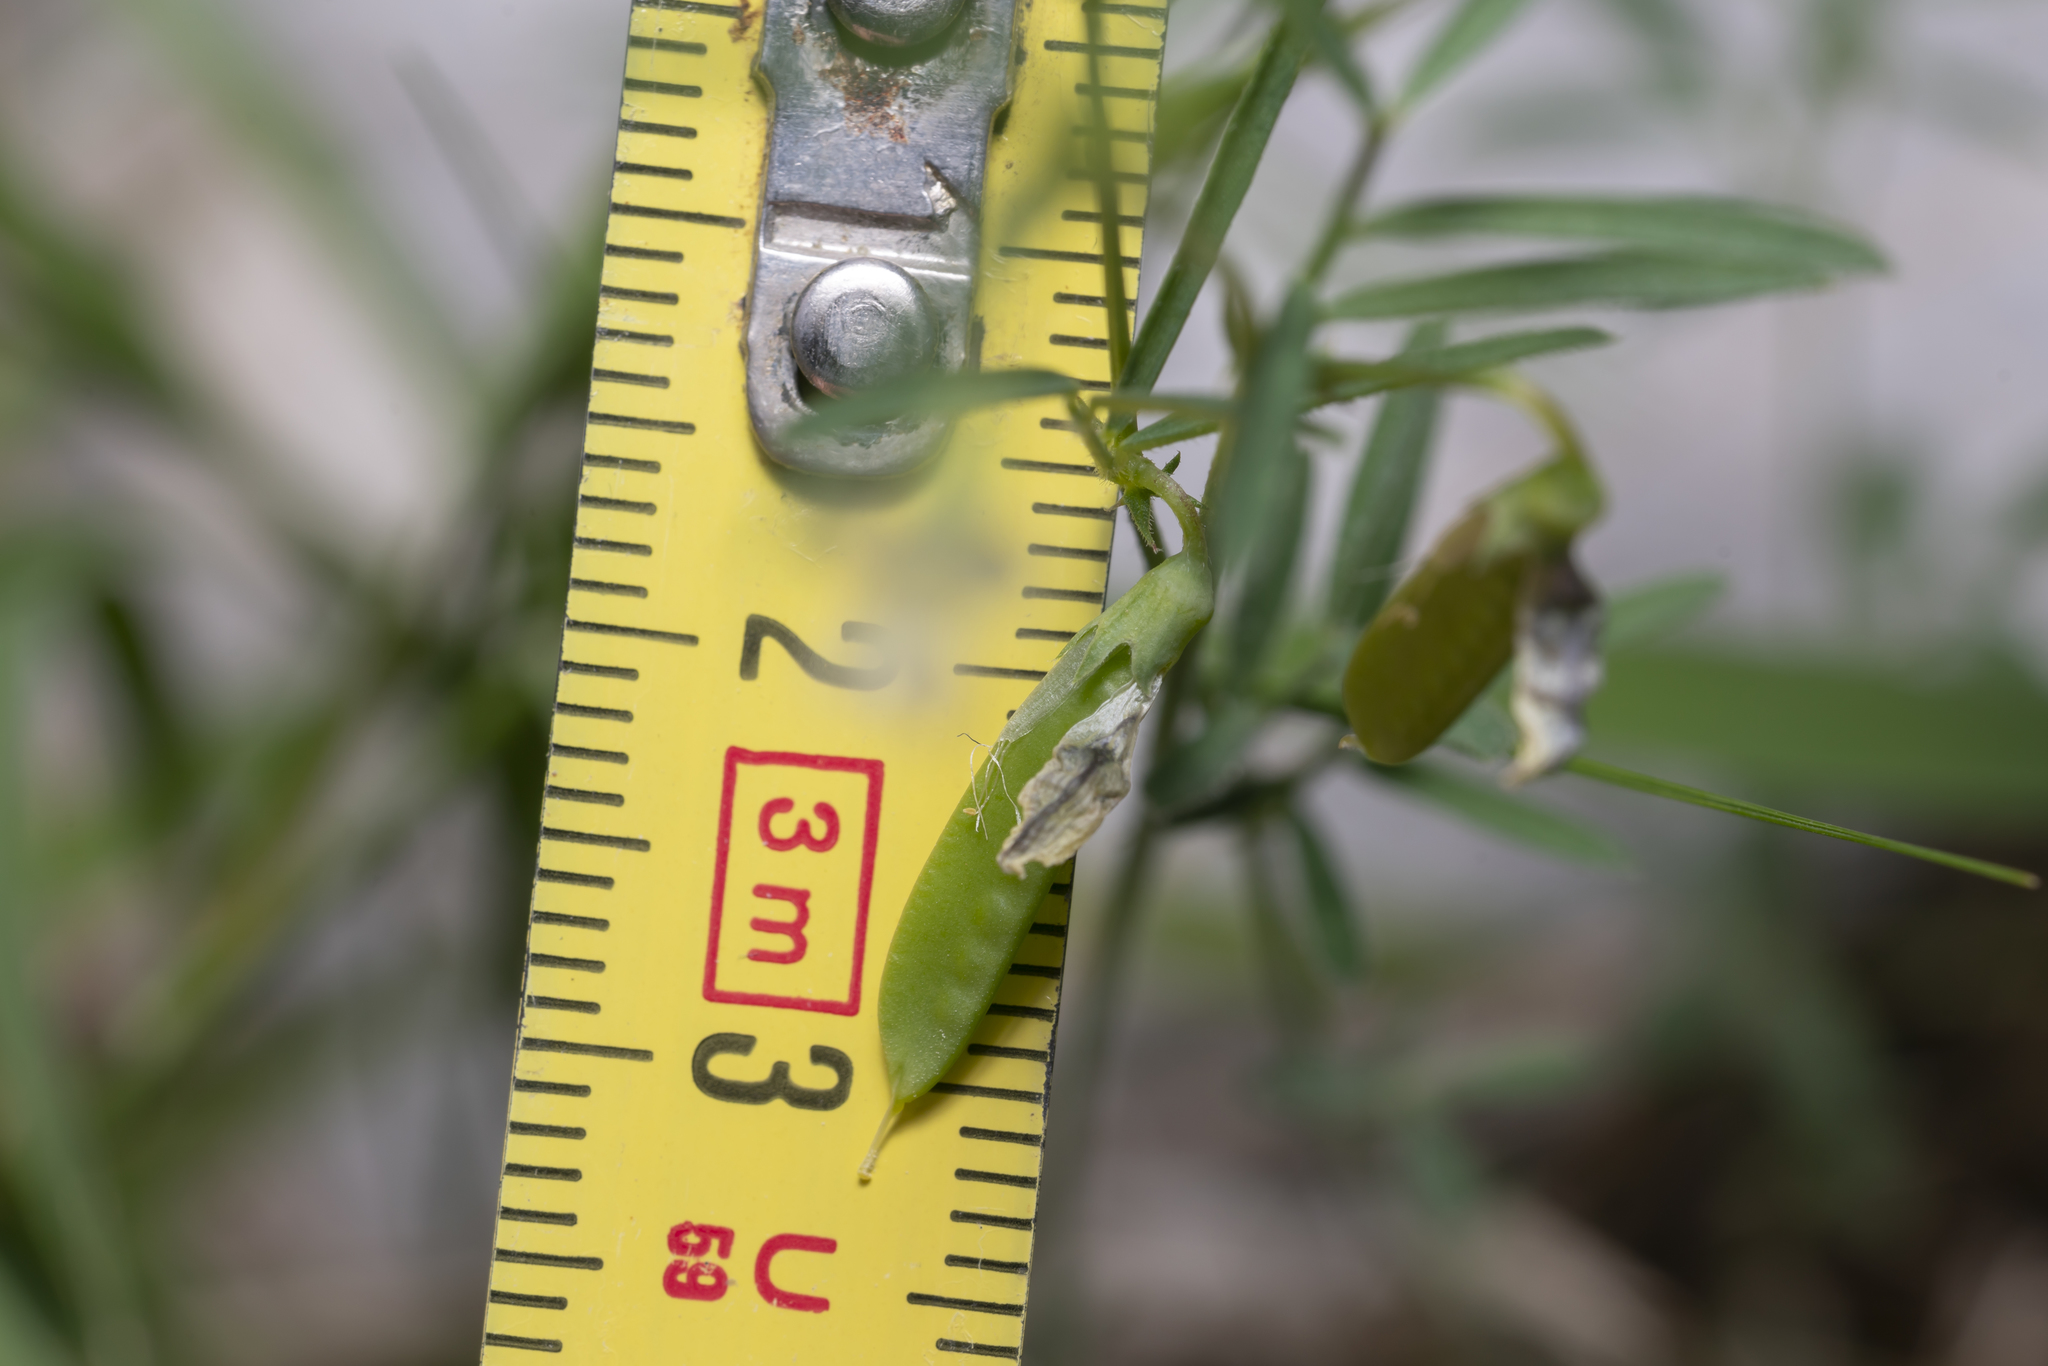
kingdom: Plantae
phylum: Tracheophyta
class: Magnoliopsida
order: Fabales
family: Fabaceae
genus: Lathyrus
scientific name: Lathyrus saxatilis
